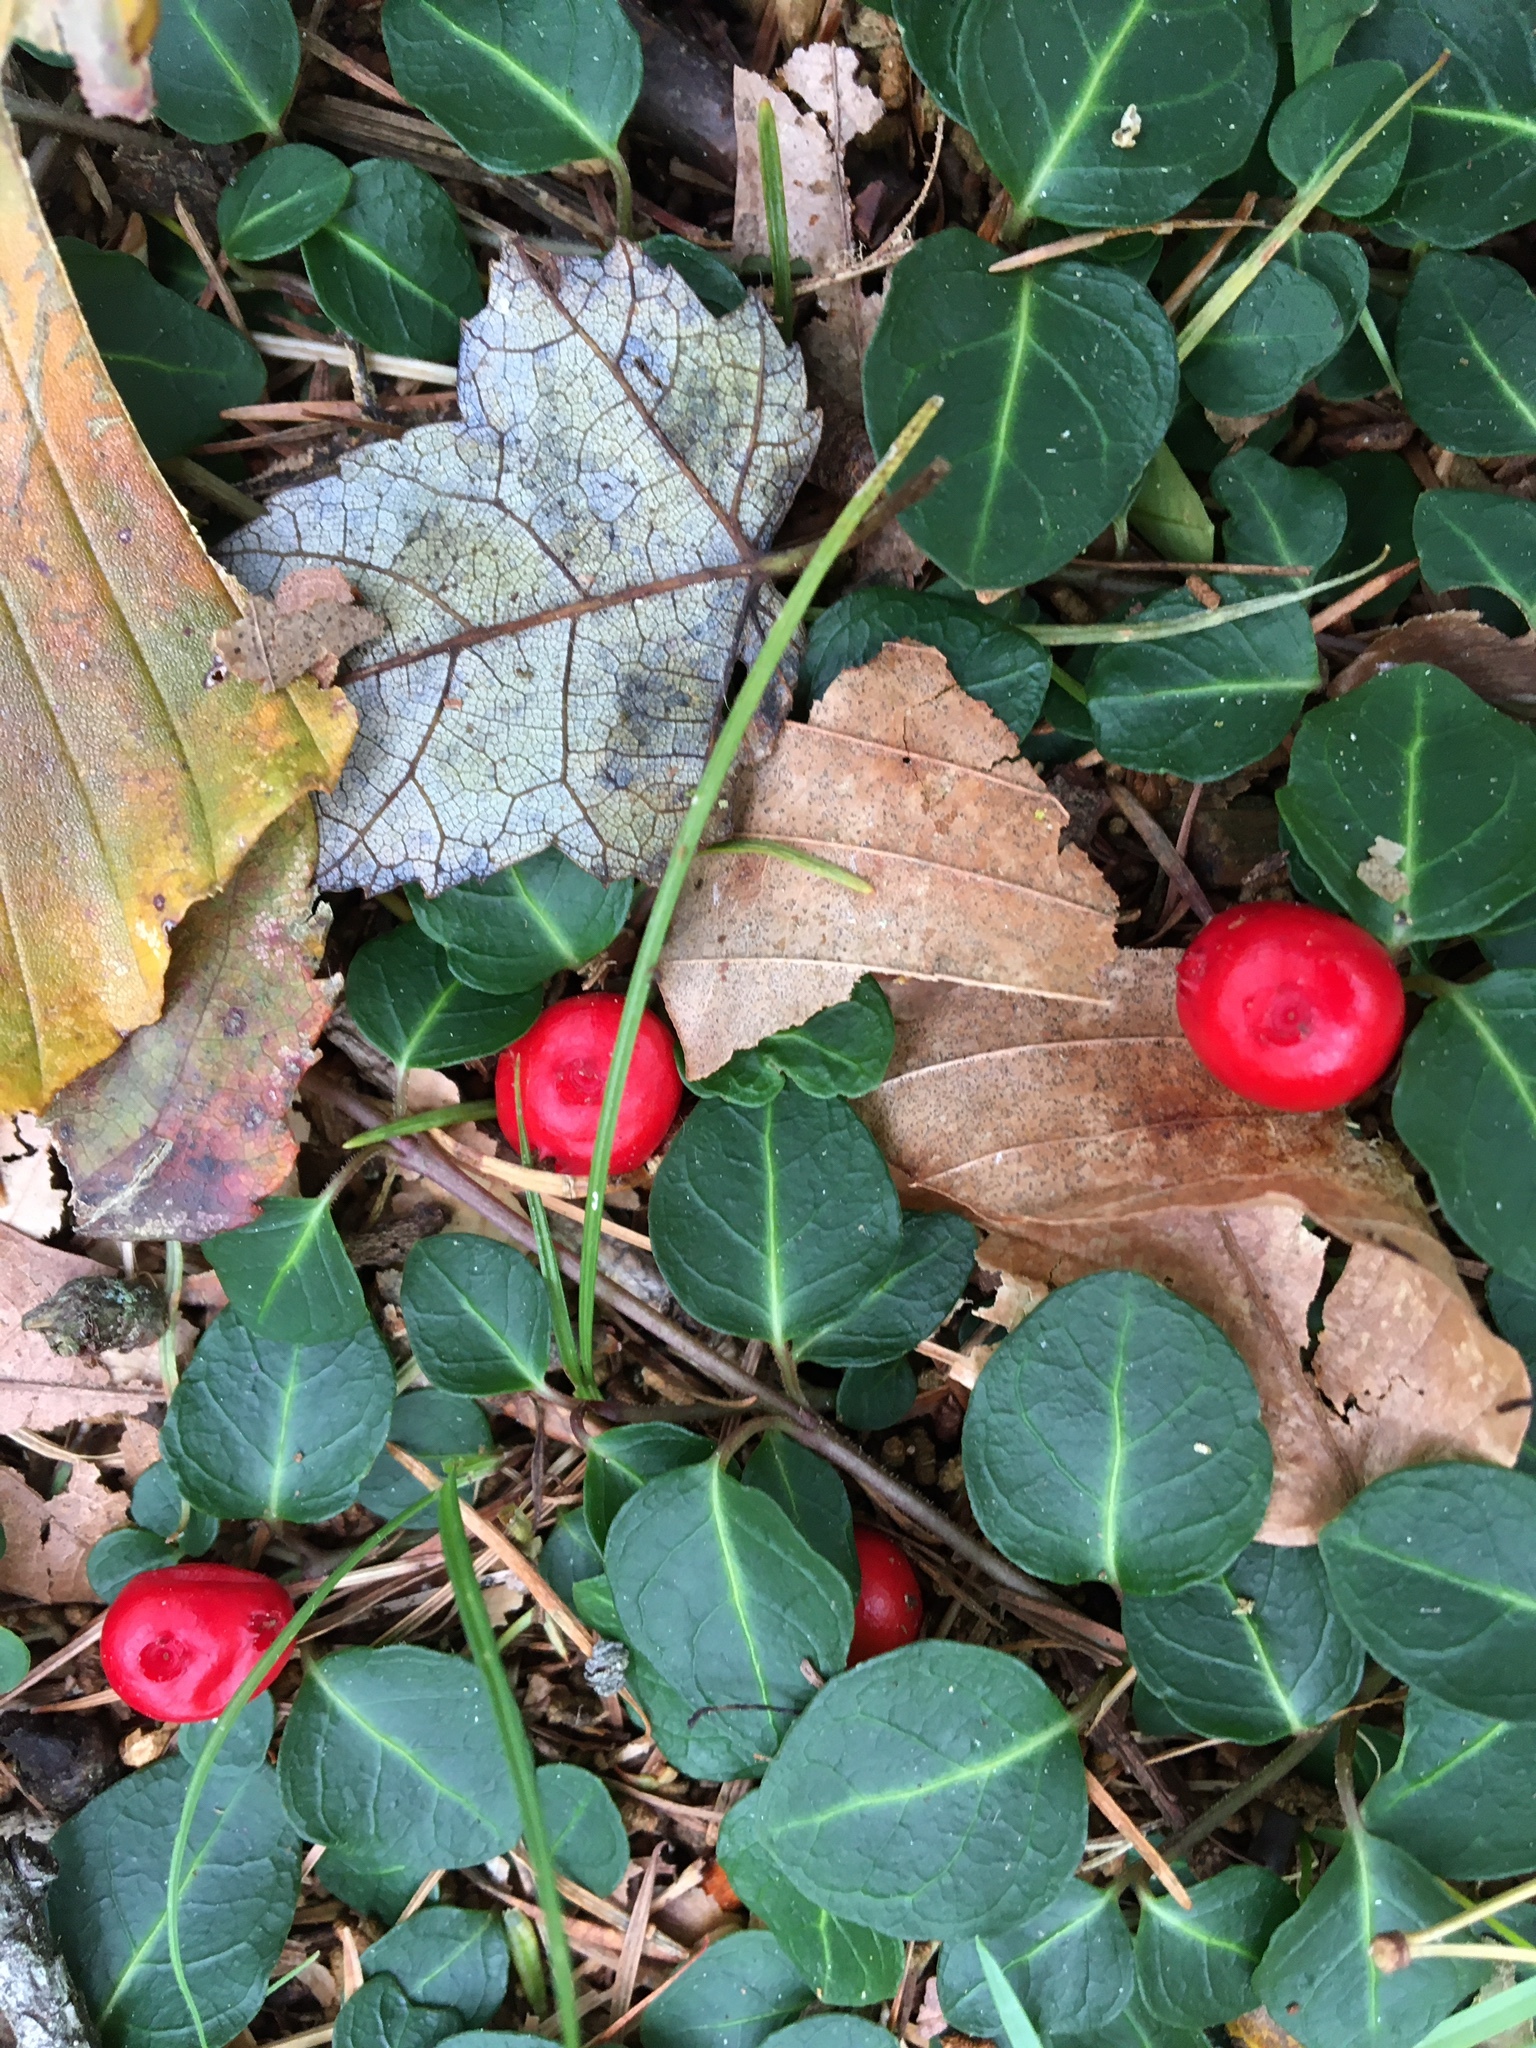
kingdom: Plantae
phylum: Tracheophyta
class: Magnoliopsida
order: Gentianales
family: Rubiaceae
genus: Mitchella
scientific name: Mitchella repens
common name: Partridge-berry
